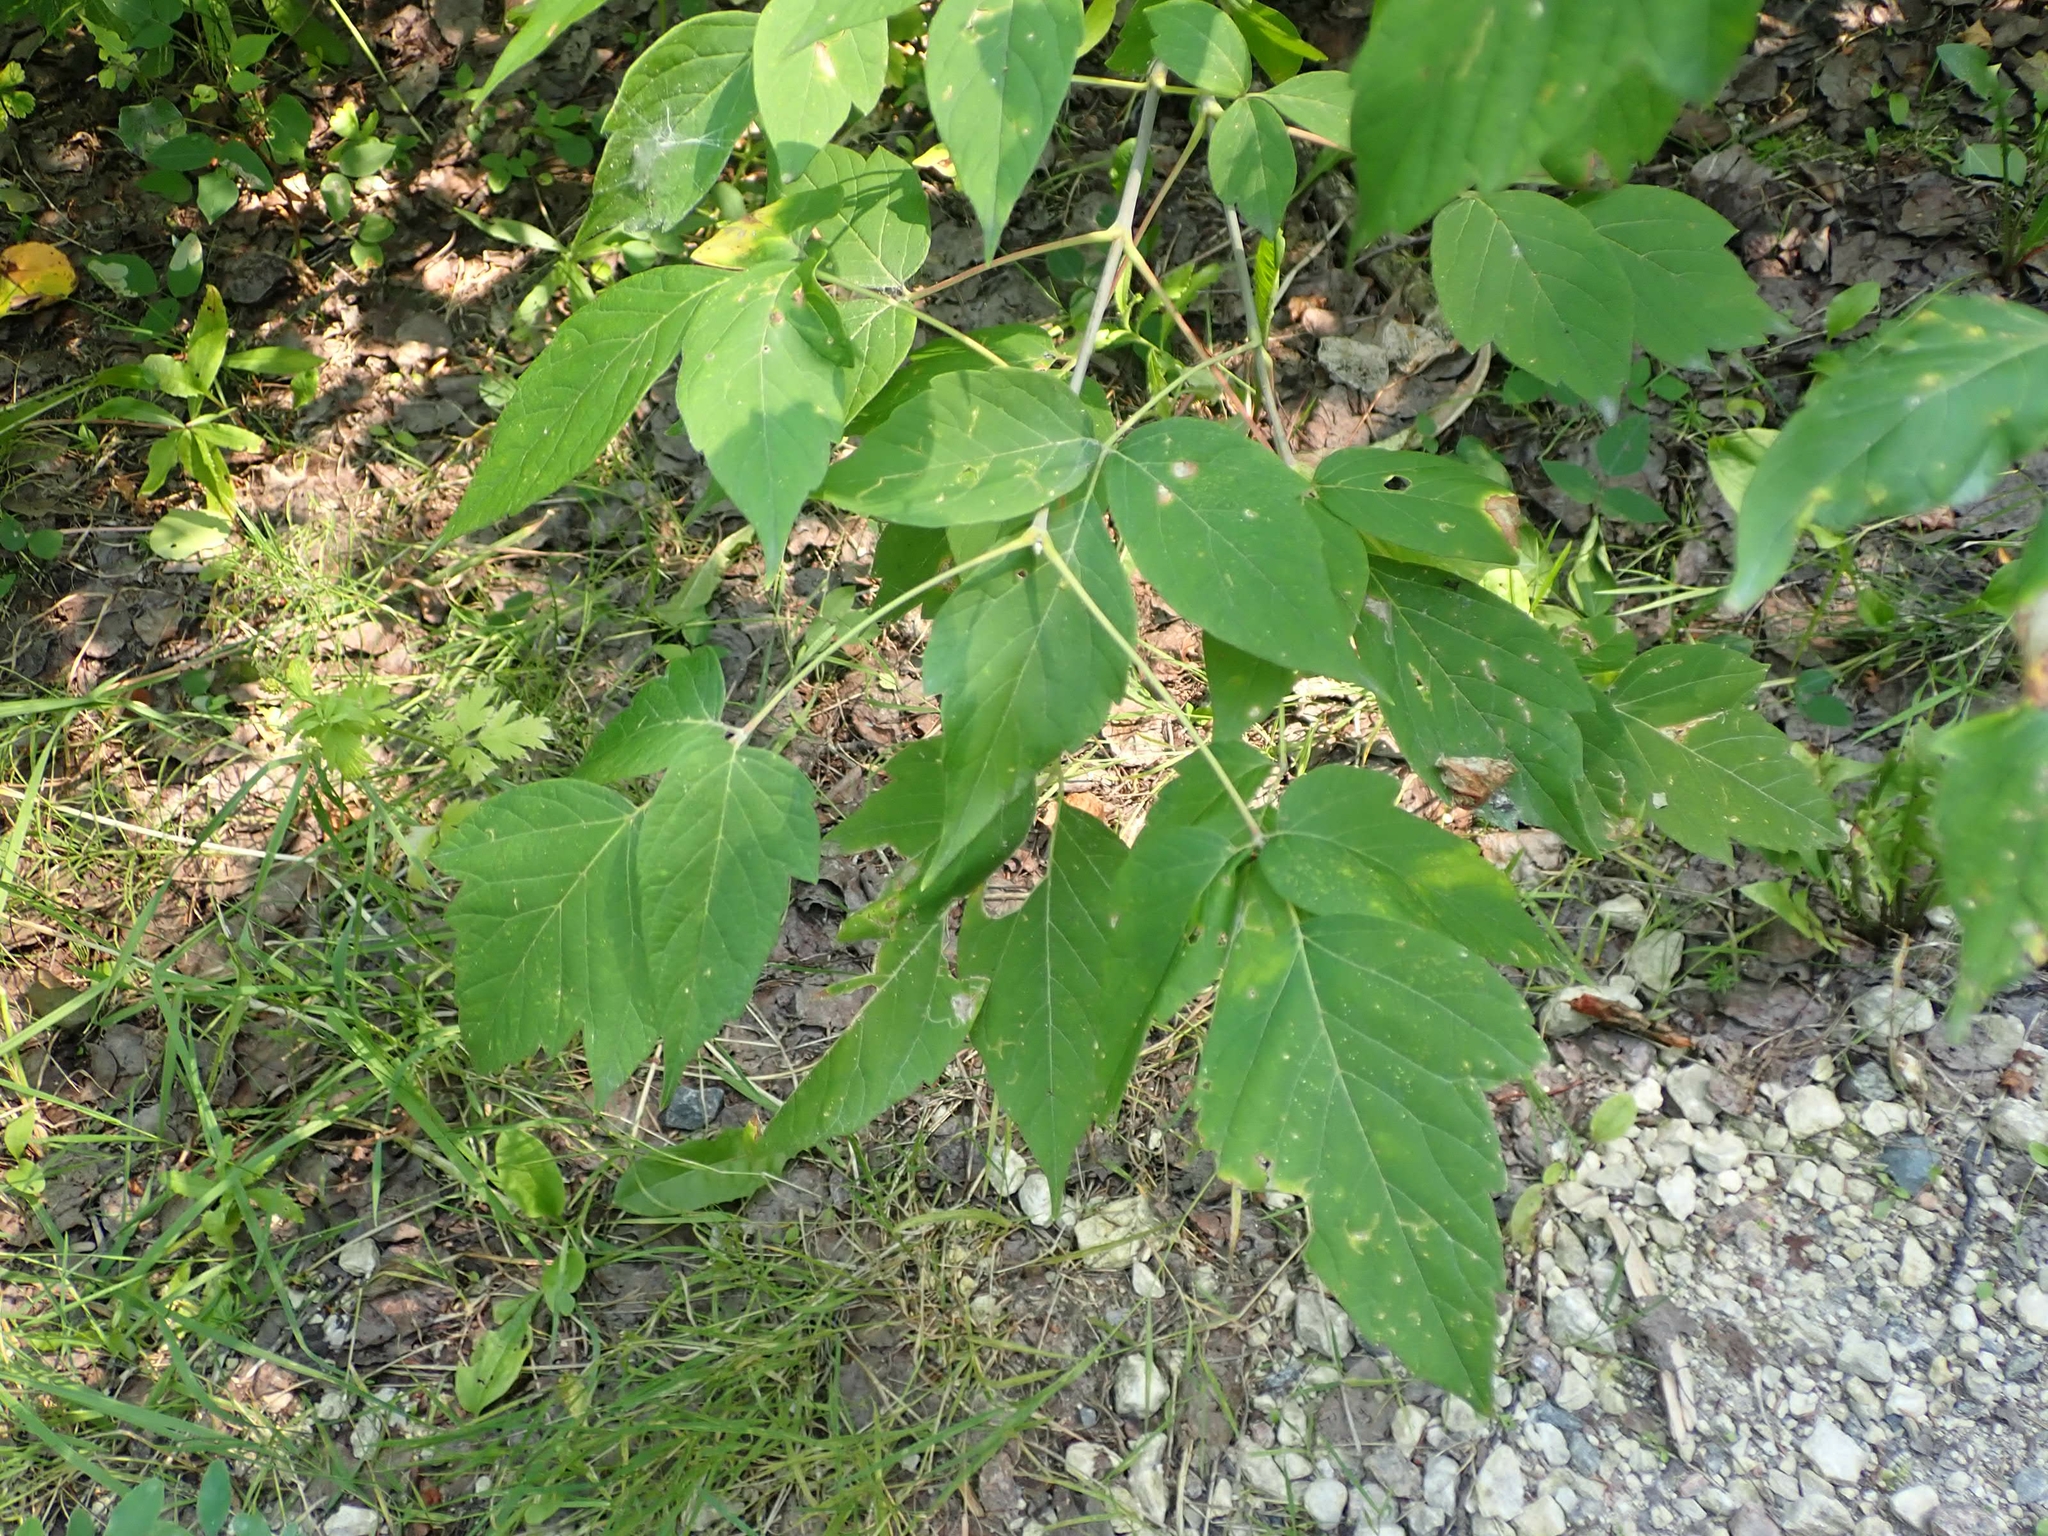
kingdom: Plantae
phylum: Tracheophyta
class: Magnoliopsida
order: Sapindales
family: Sapindaceae
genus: Acer
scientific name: Acer negundo
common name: Ashleaf maple
